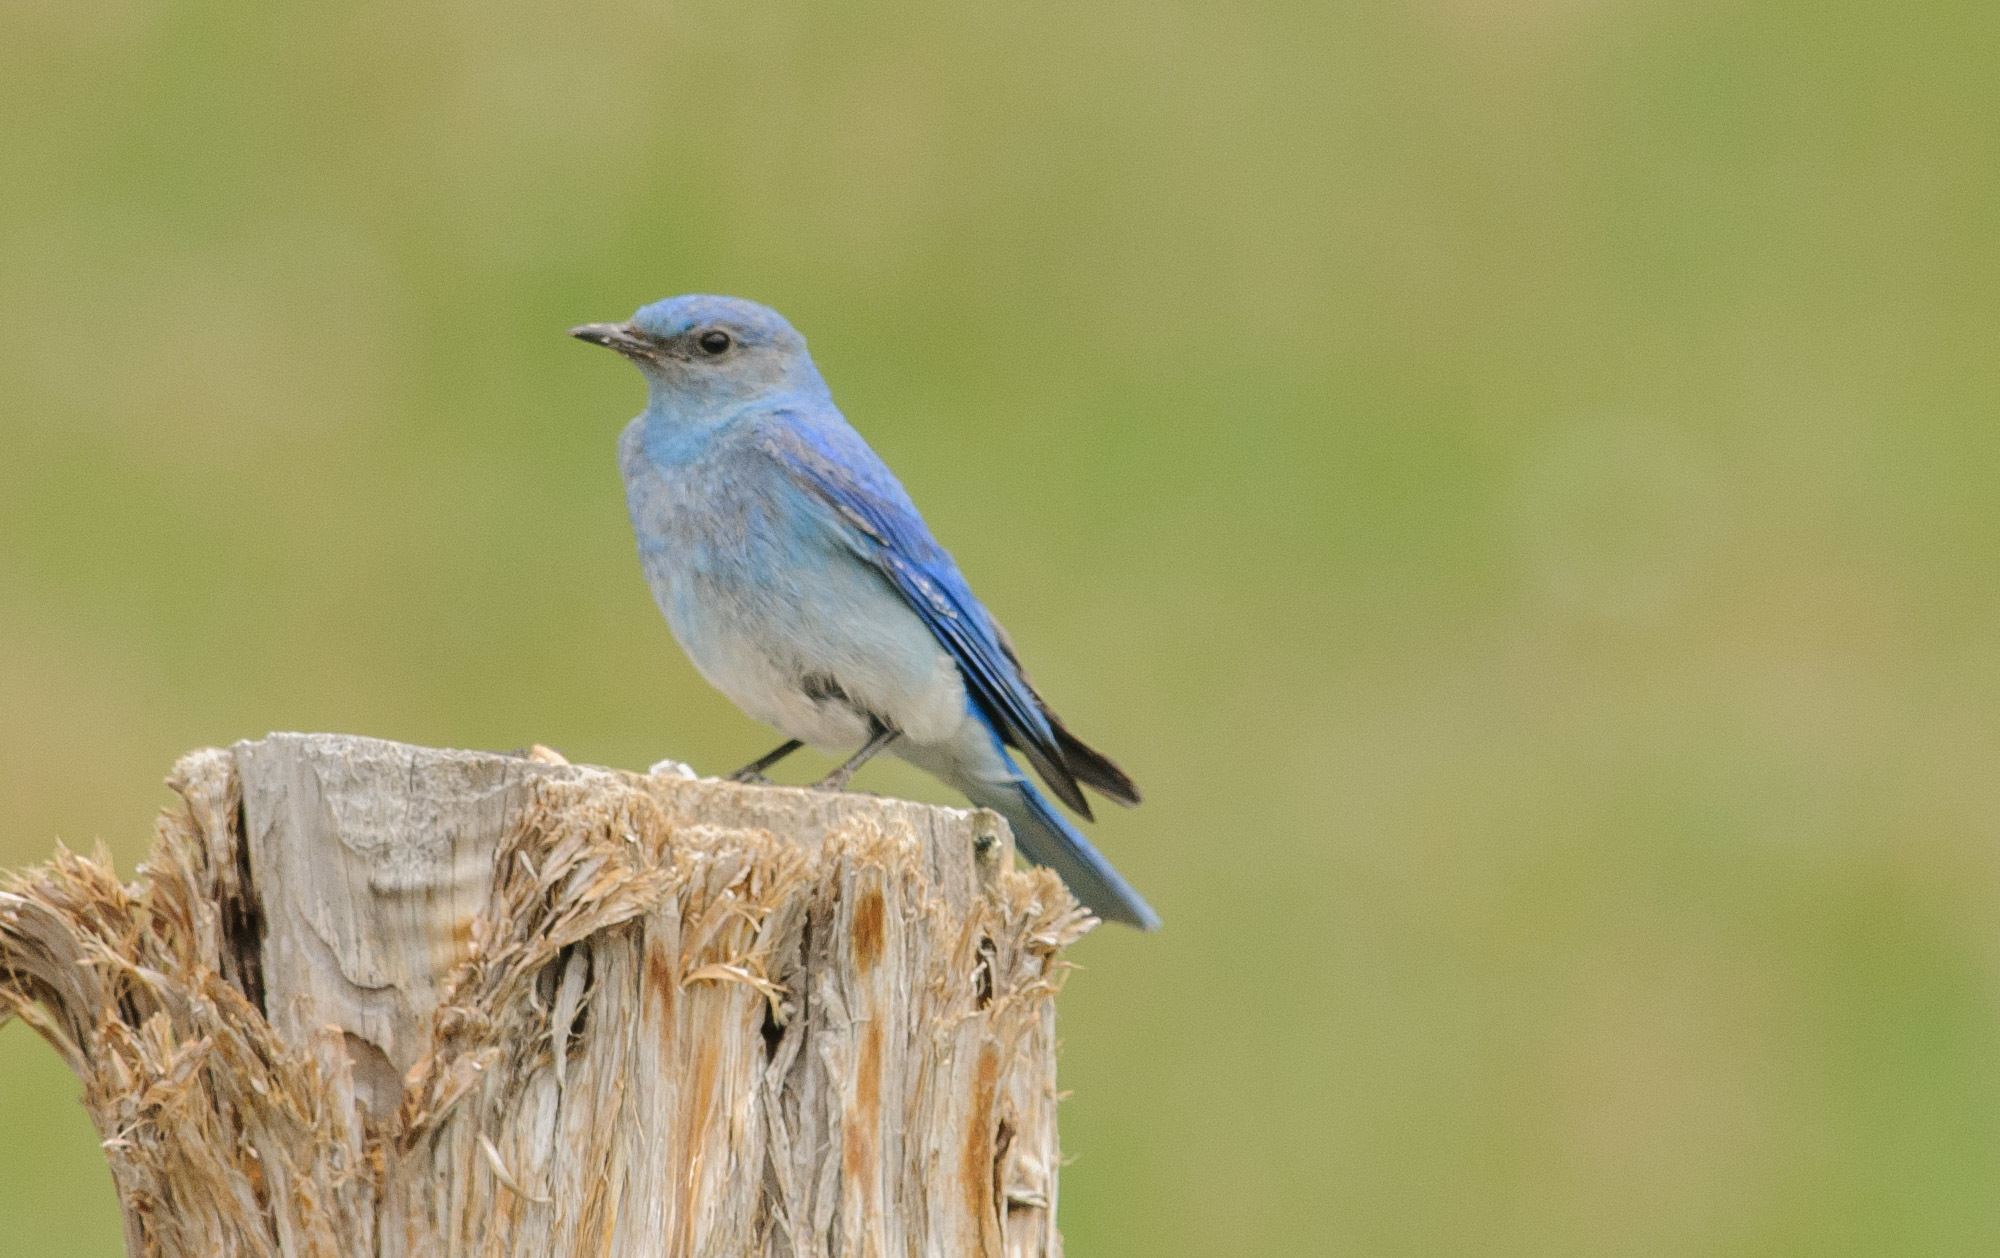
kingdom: Animalia
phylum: Chordata
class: Aves
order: Passeriformes
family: Turdidae
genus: Sialia
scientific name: Sialia currucoides
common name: Mountain bluebird
